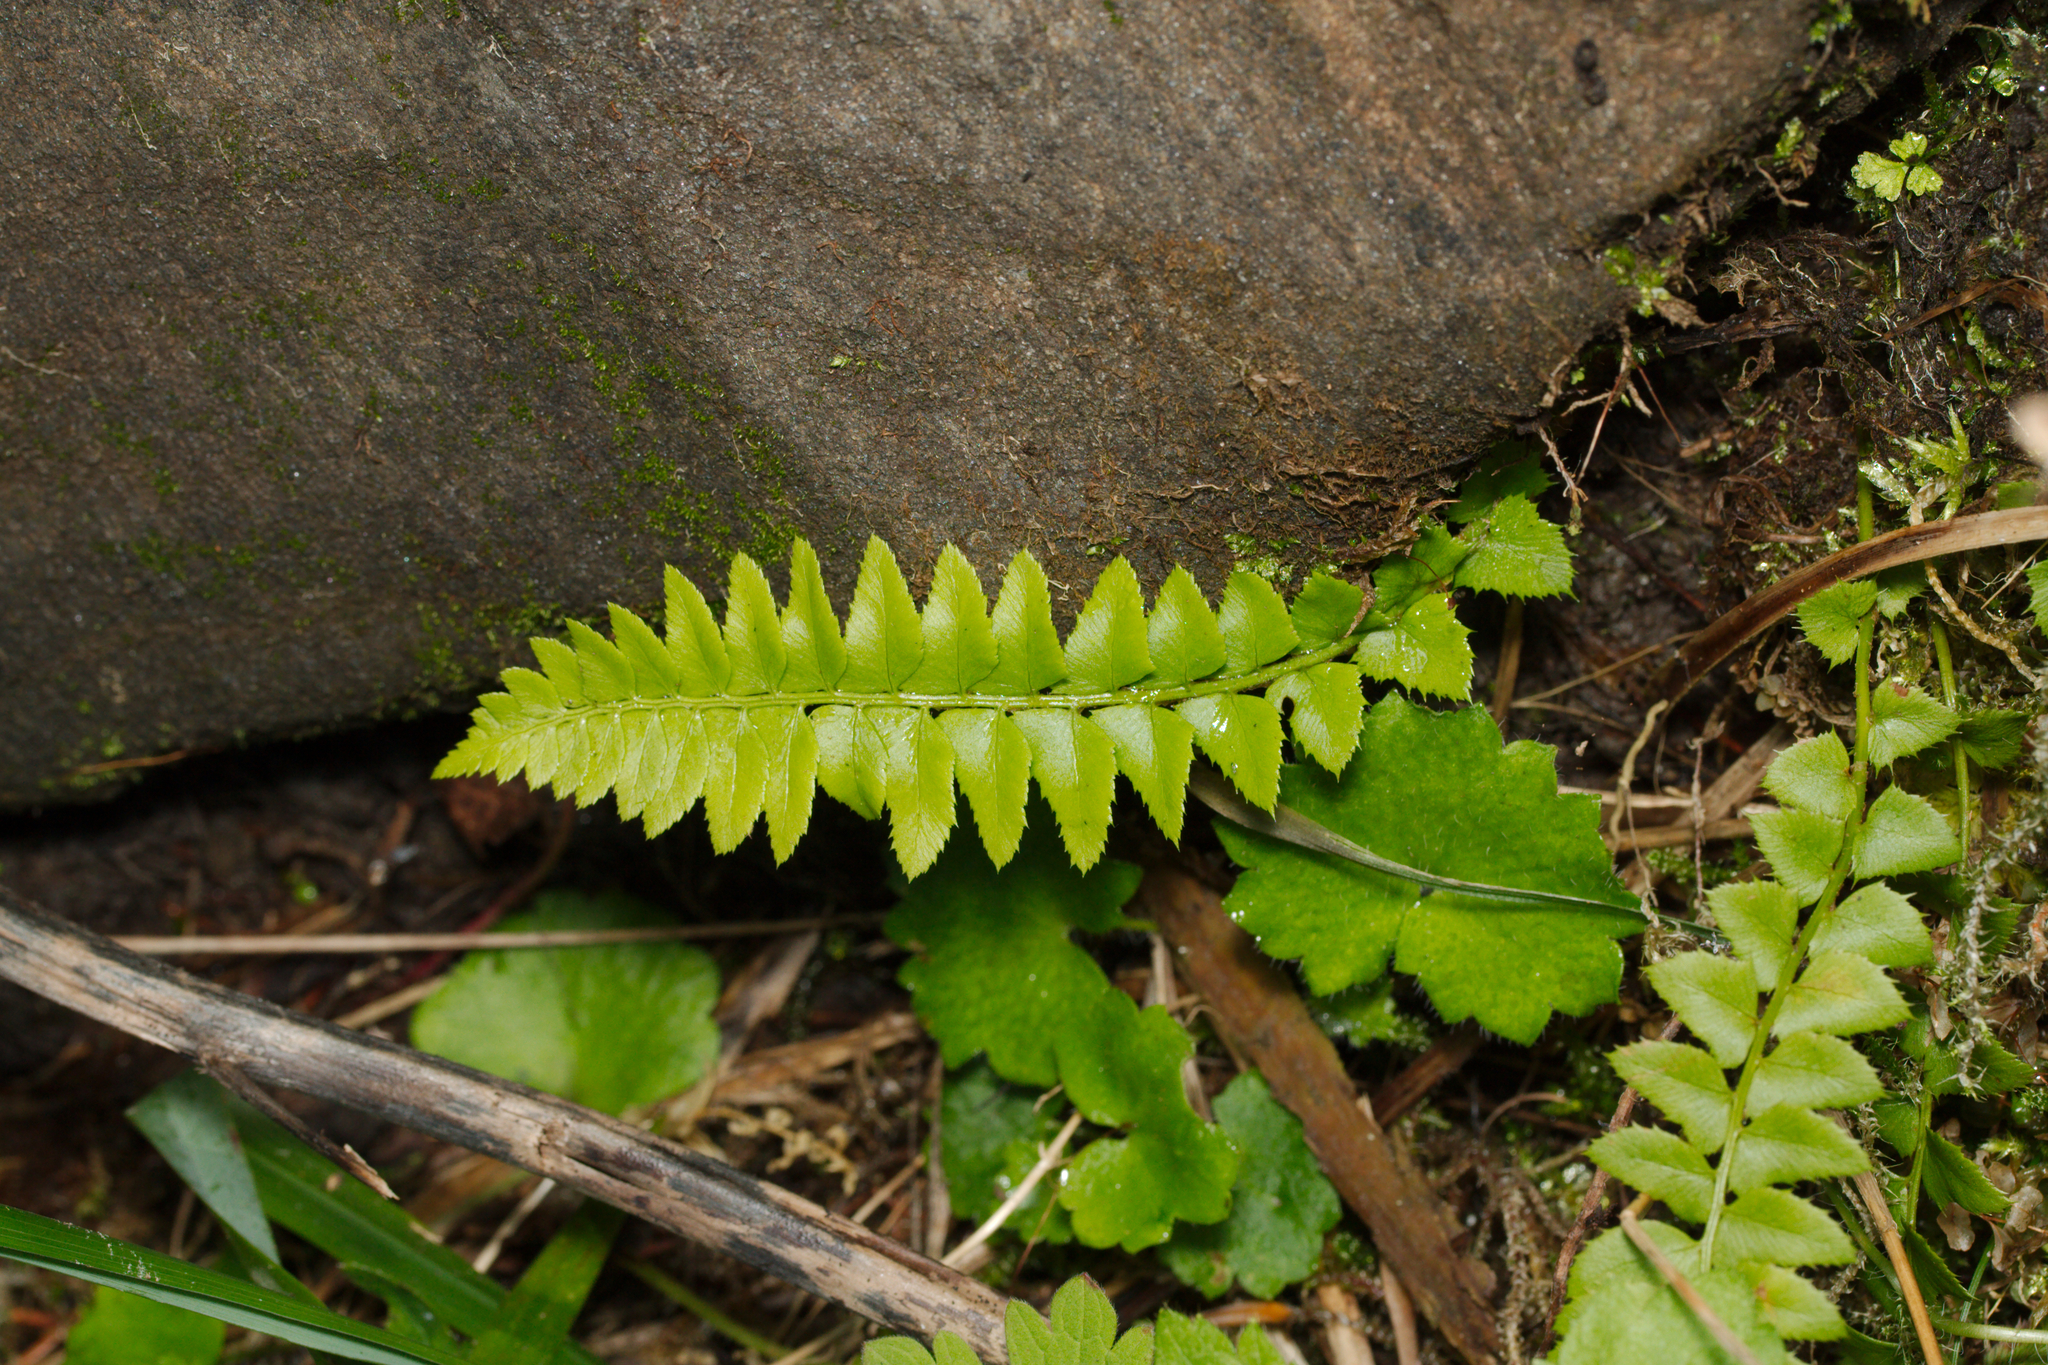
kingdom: Plantae
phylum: Tracheophyta
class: Polypodiopsida
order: Polypodiales
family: Dryopteridaceae
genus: Polystichum
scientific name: Polystichum lonchitis
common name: Holly fern
